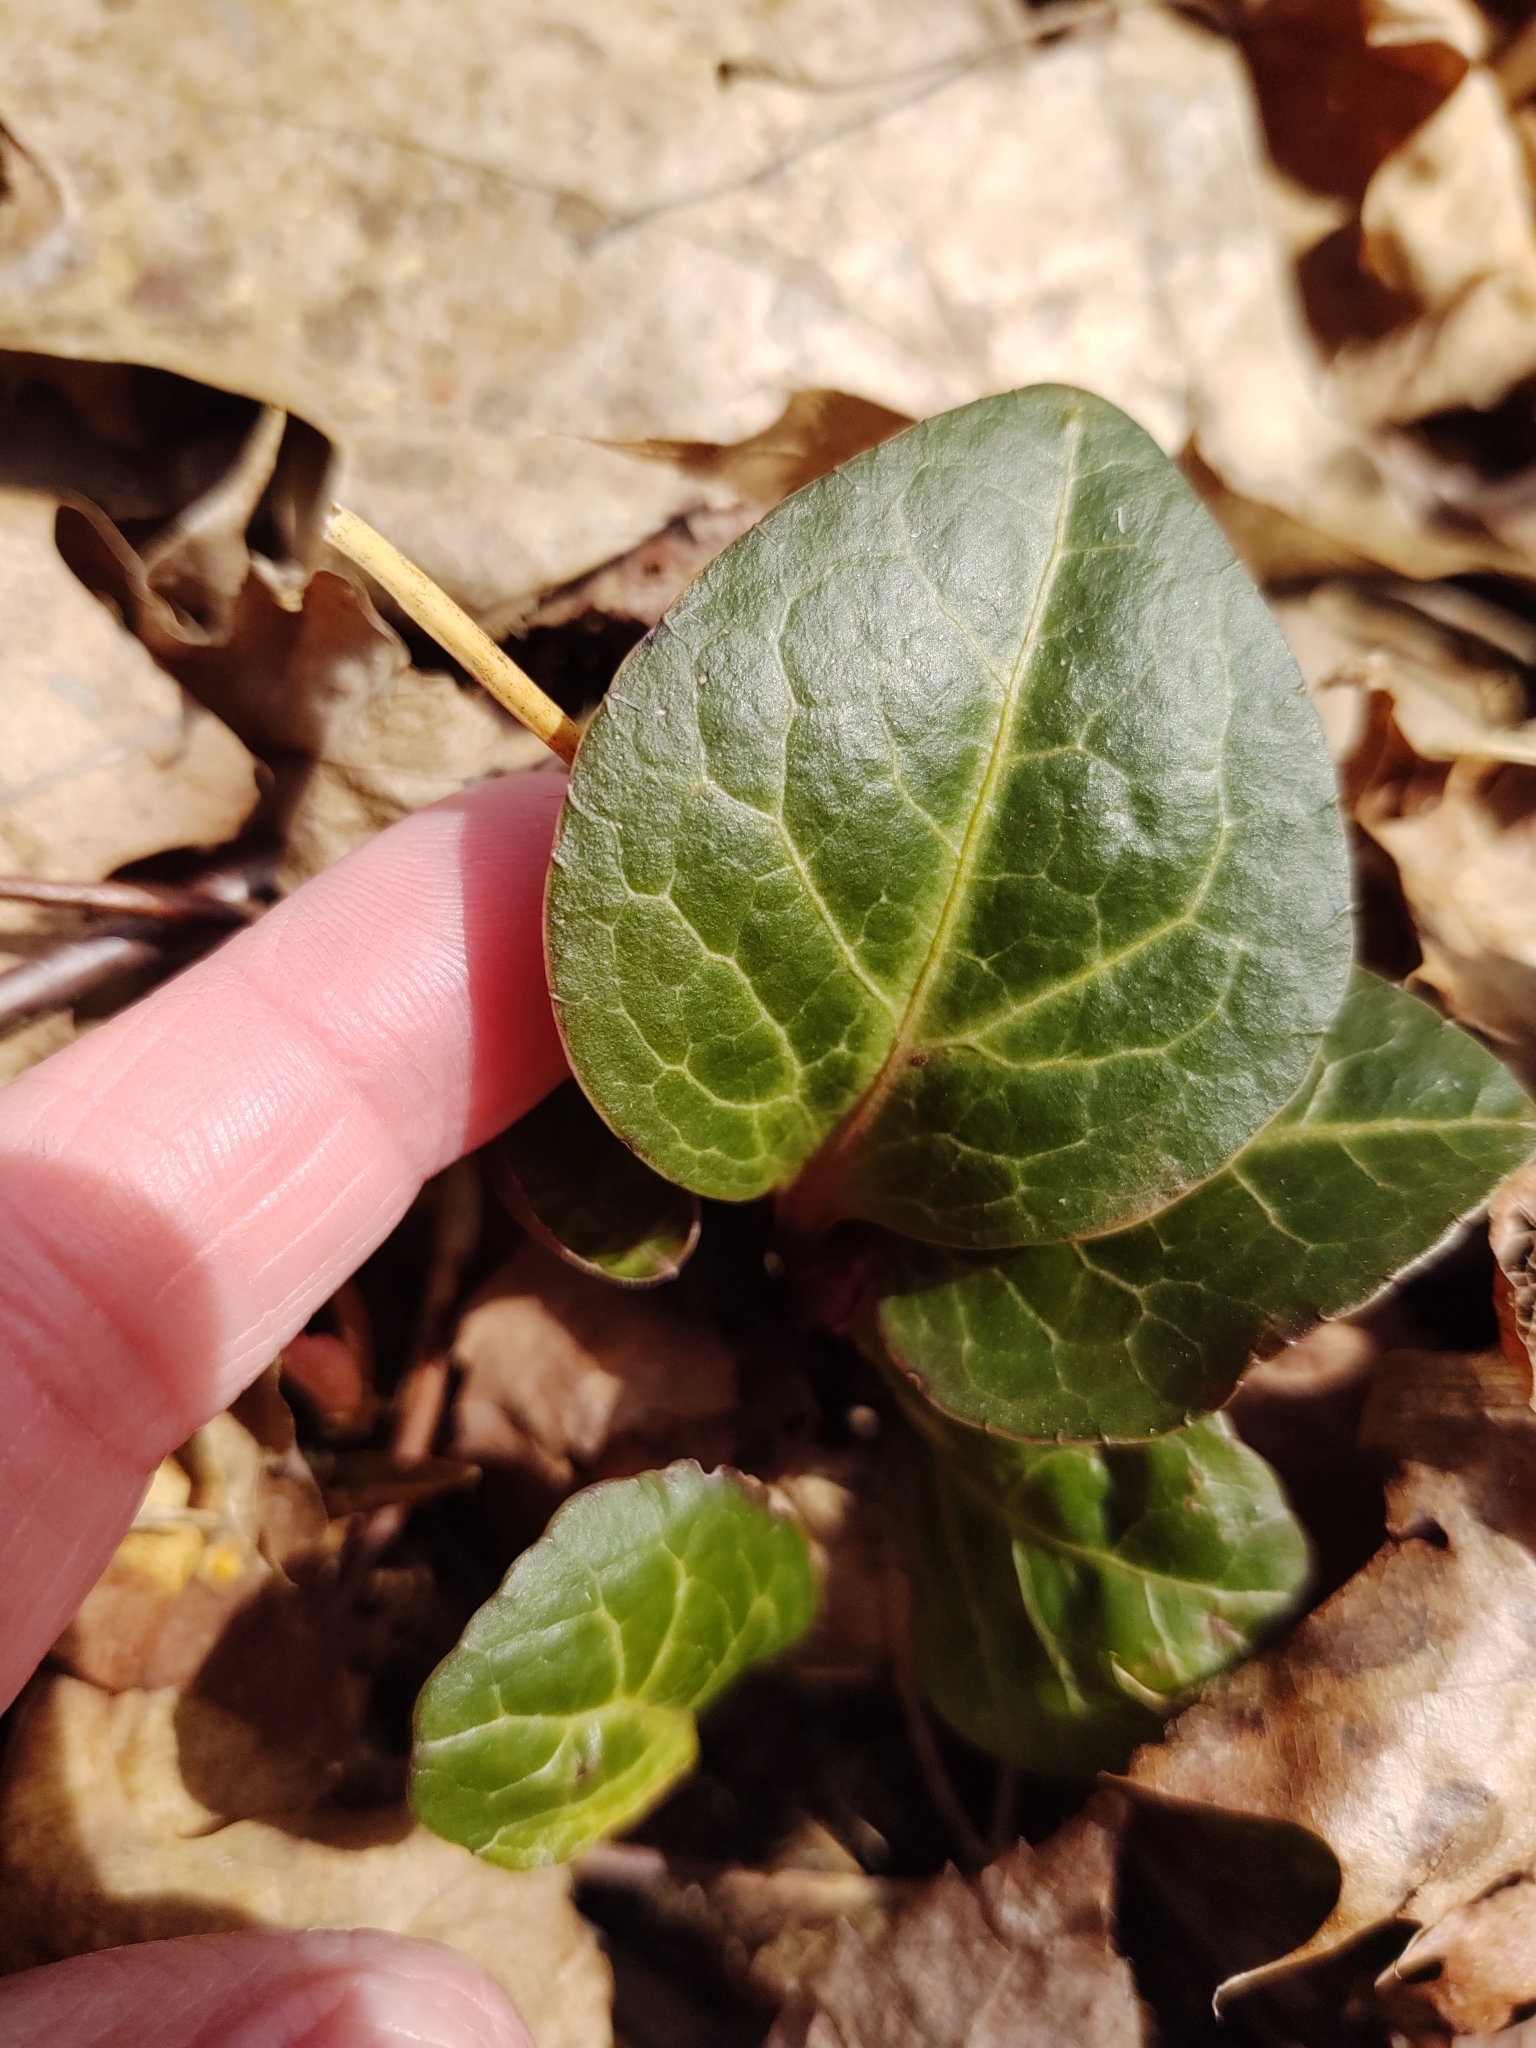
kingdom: Plantae
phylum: Tracheophyta
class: Magnoliopsida
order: Ericales
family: Ericaceae
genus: Pyrola
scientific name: Pyrola americana
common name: American wintergreen
